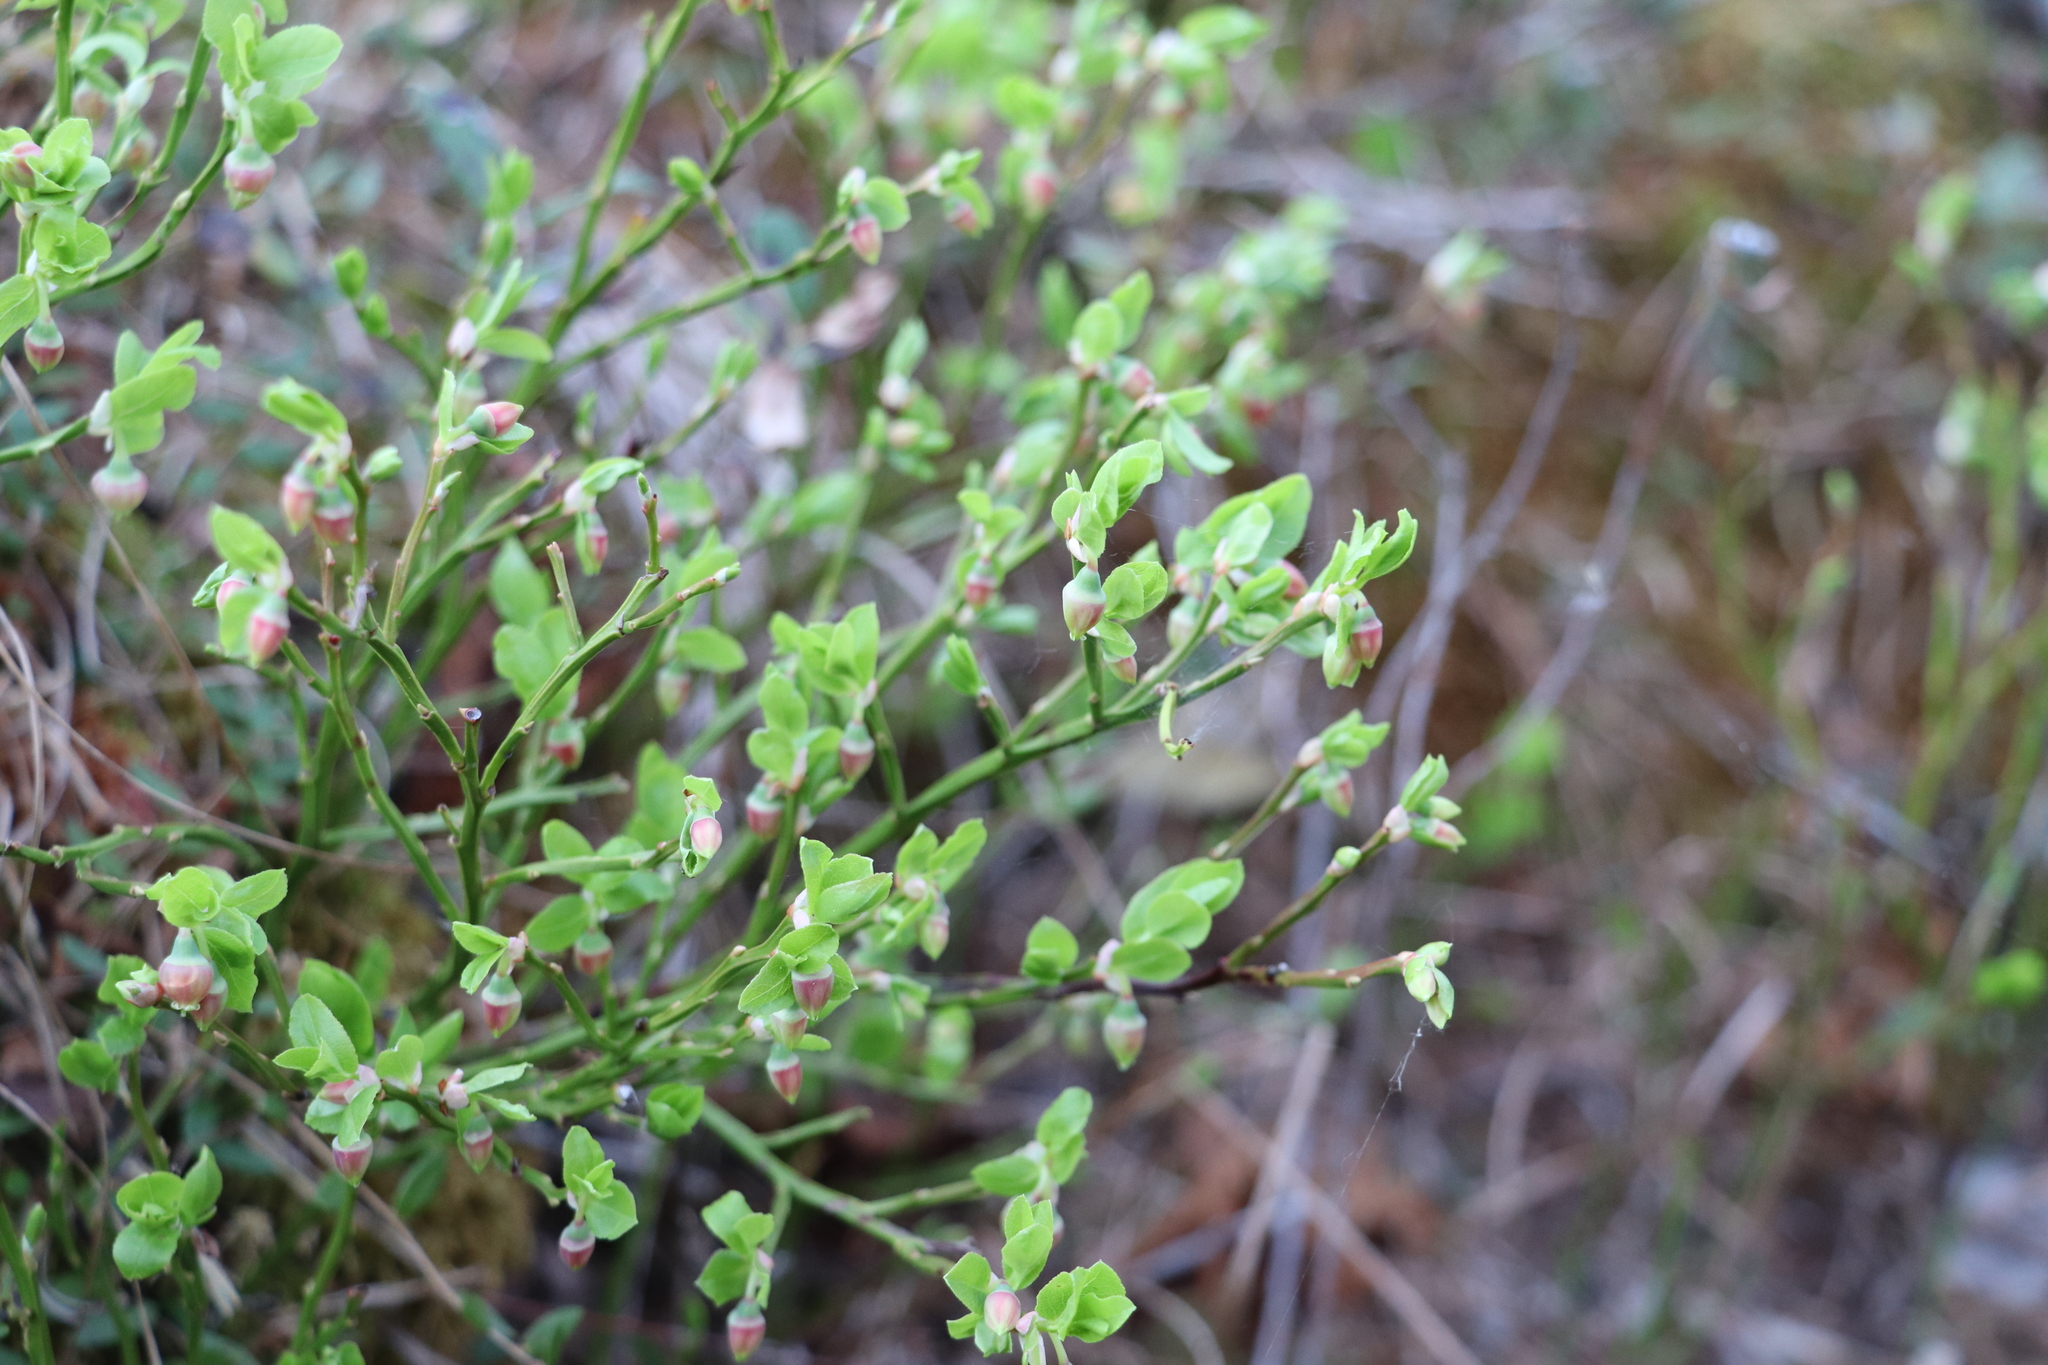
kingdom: Plantae
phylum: Tracheophyta
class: Magnoliopsida
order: Ericales
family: Ericaceae
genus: Vaccinium
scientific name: Vaccinium myrtillus
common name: Bilberry
